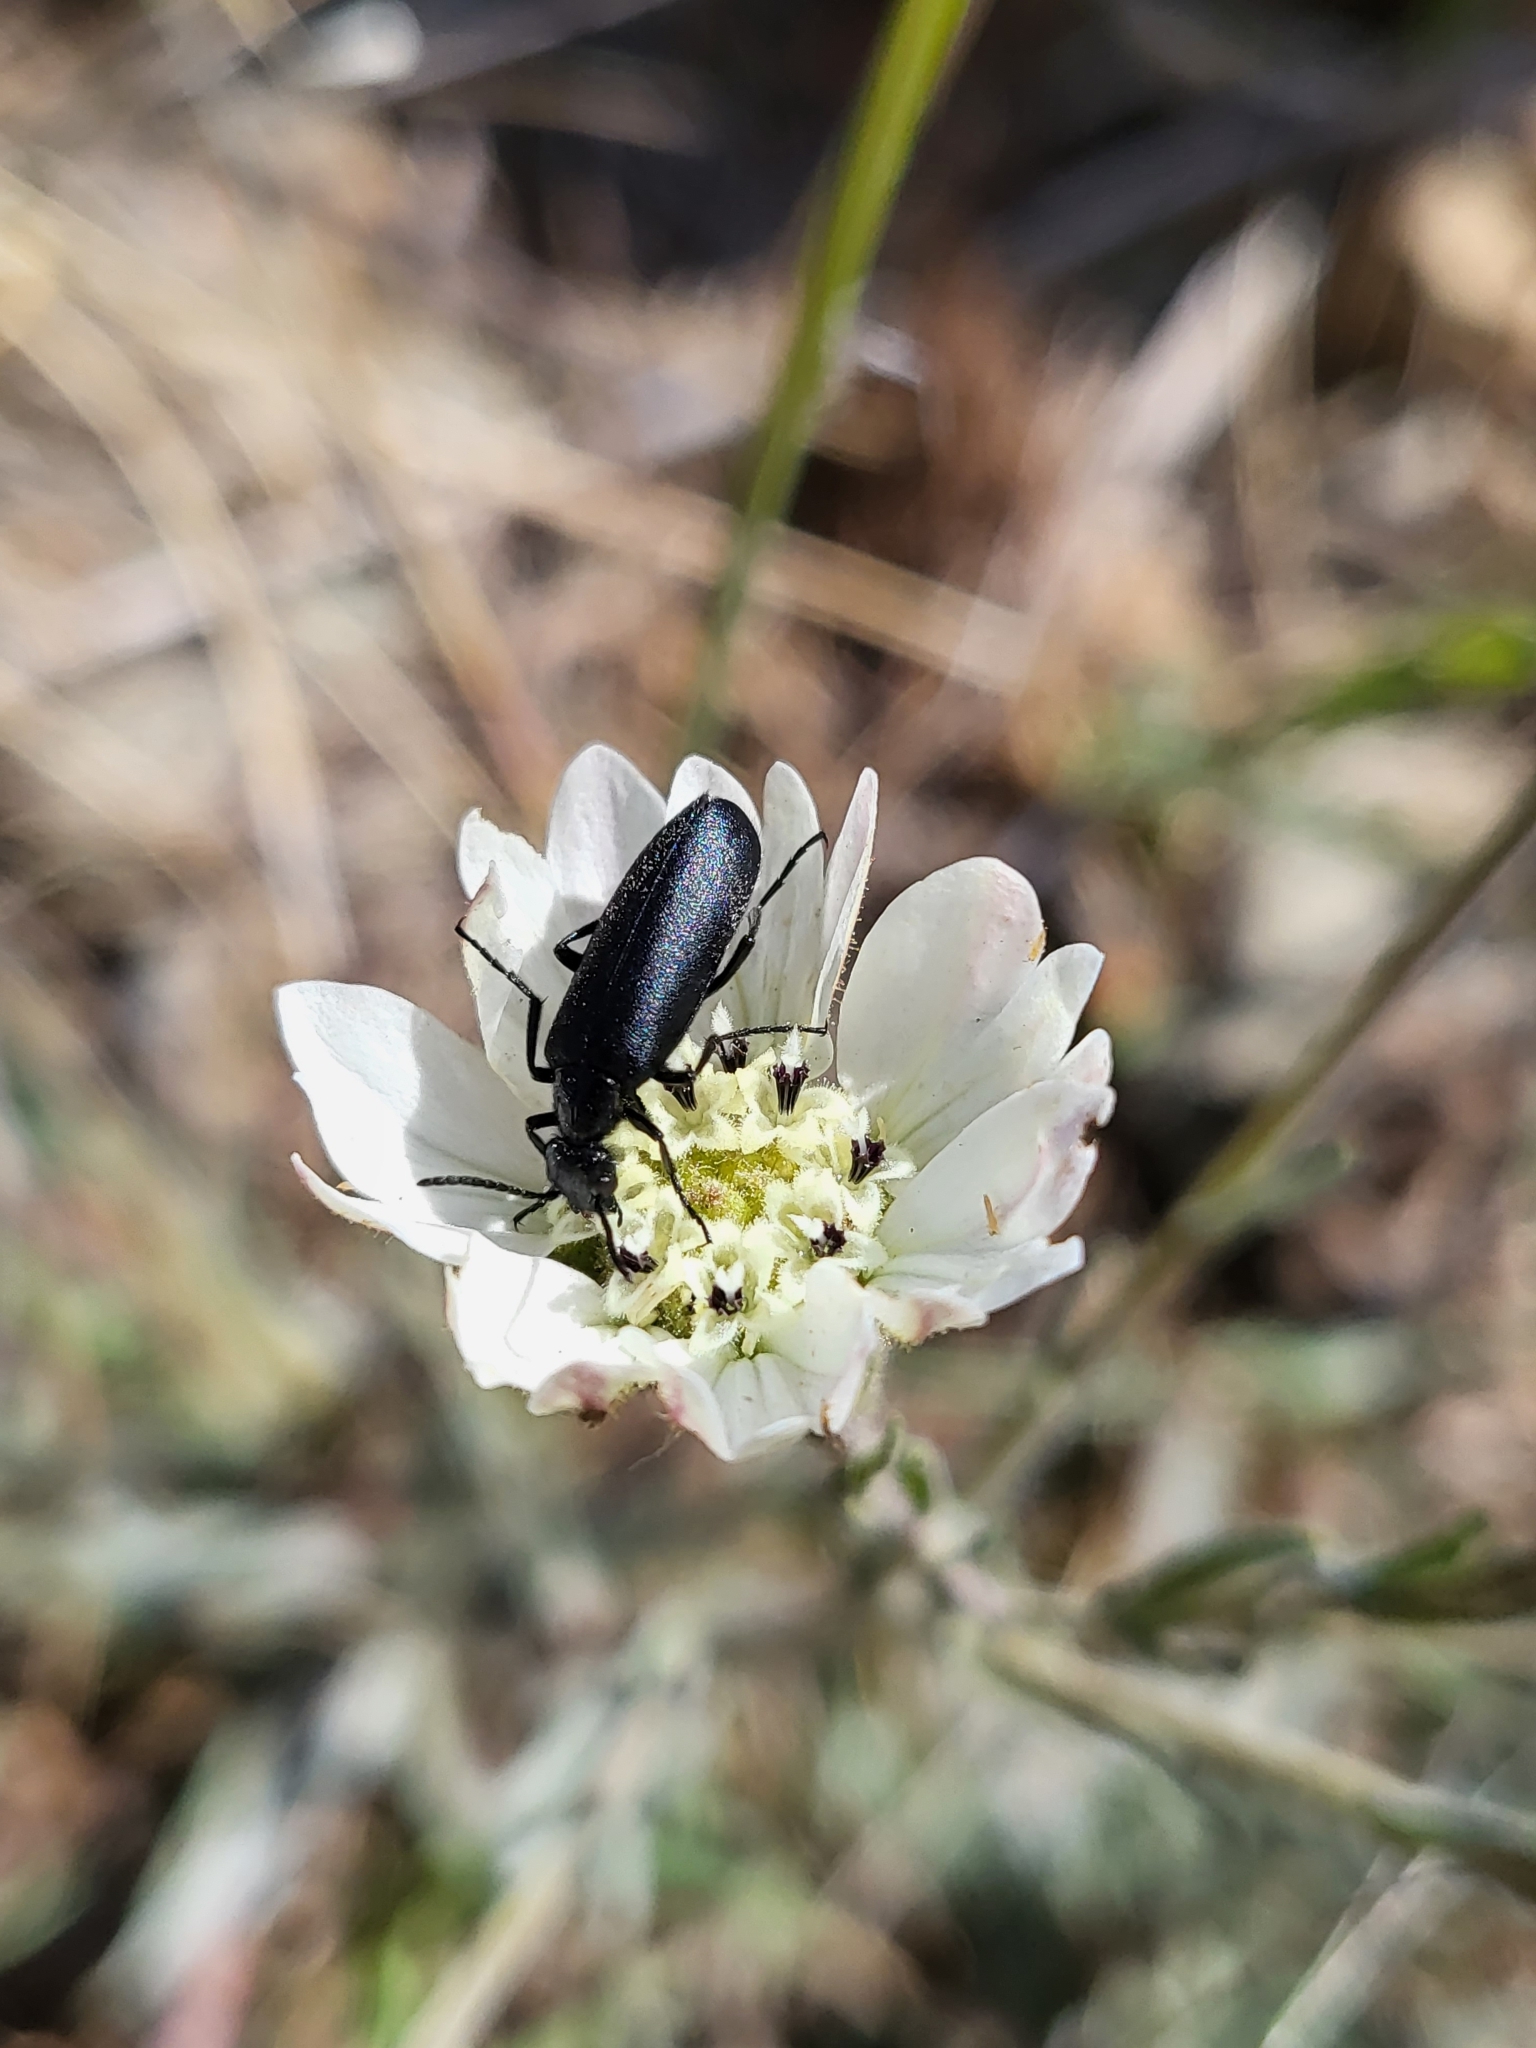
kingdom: Plantae
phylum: Tracheophyta
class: Magnoliopsida
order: Asterales
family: Asteraceae
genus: Hemizonia
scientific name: Hemizonia congesta
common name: Hayfield tarweed
